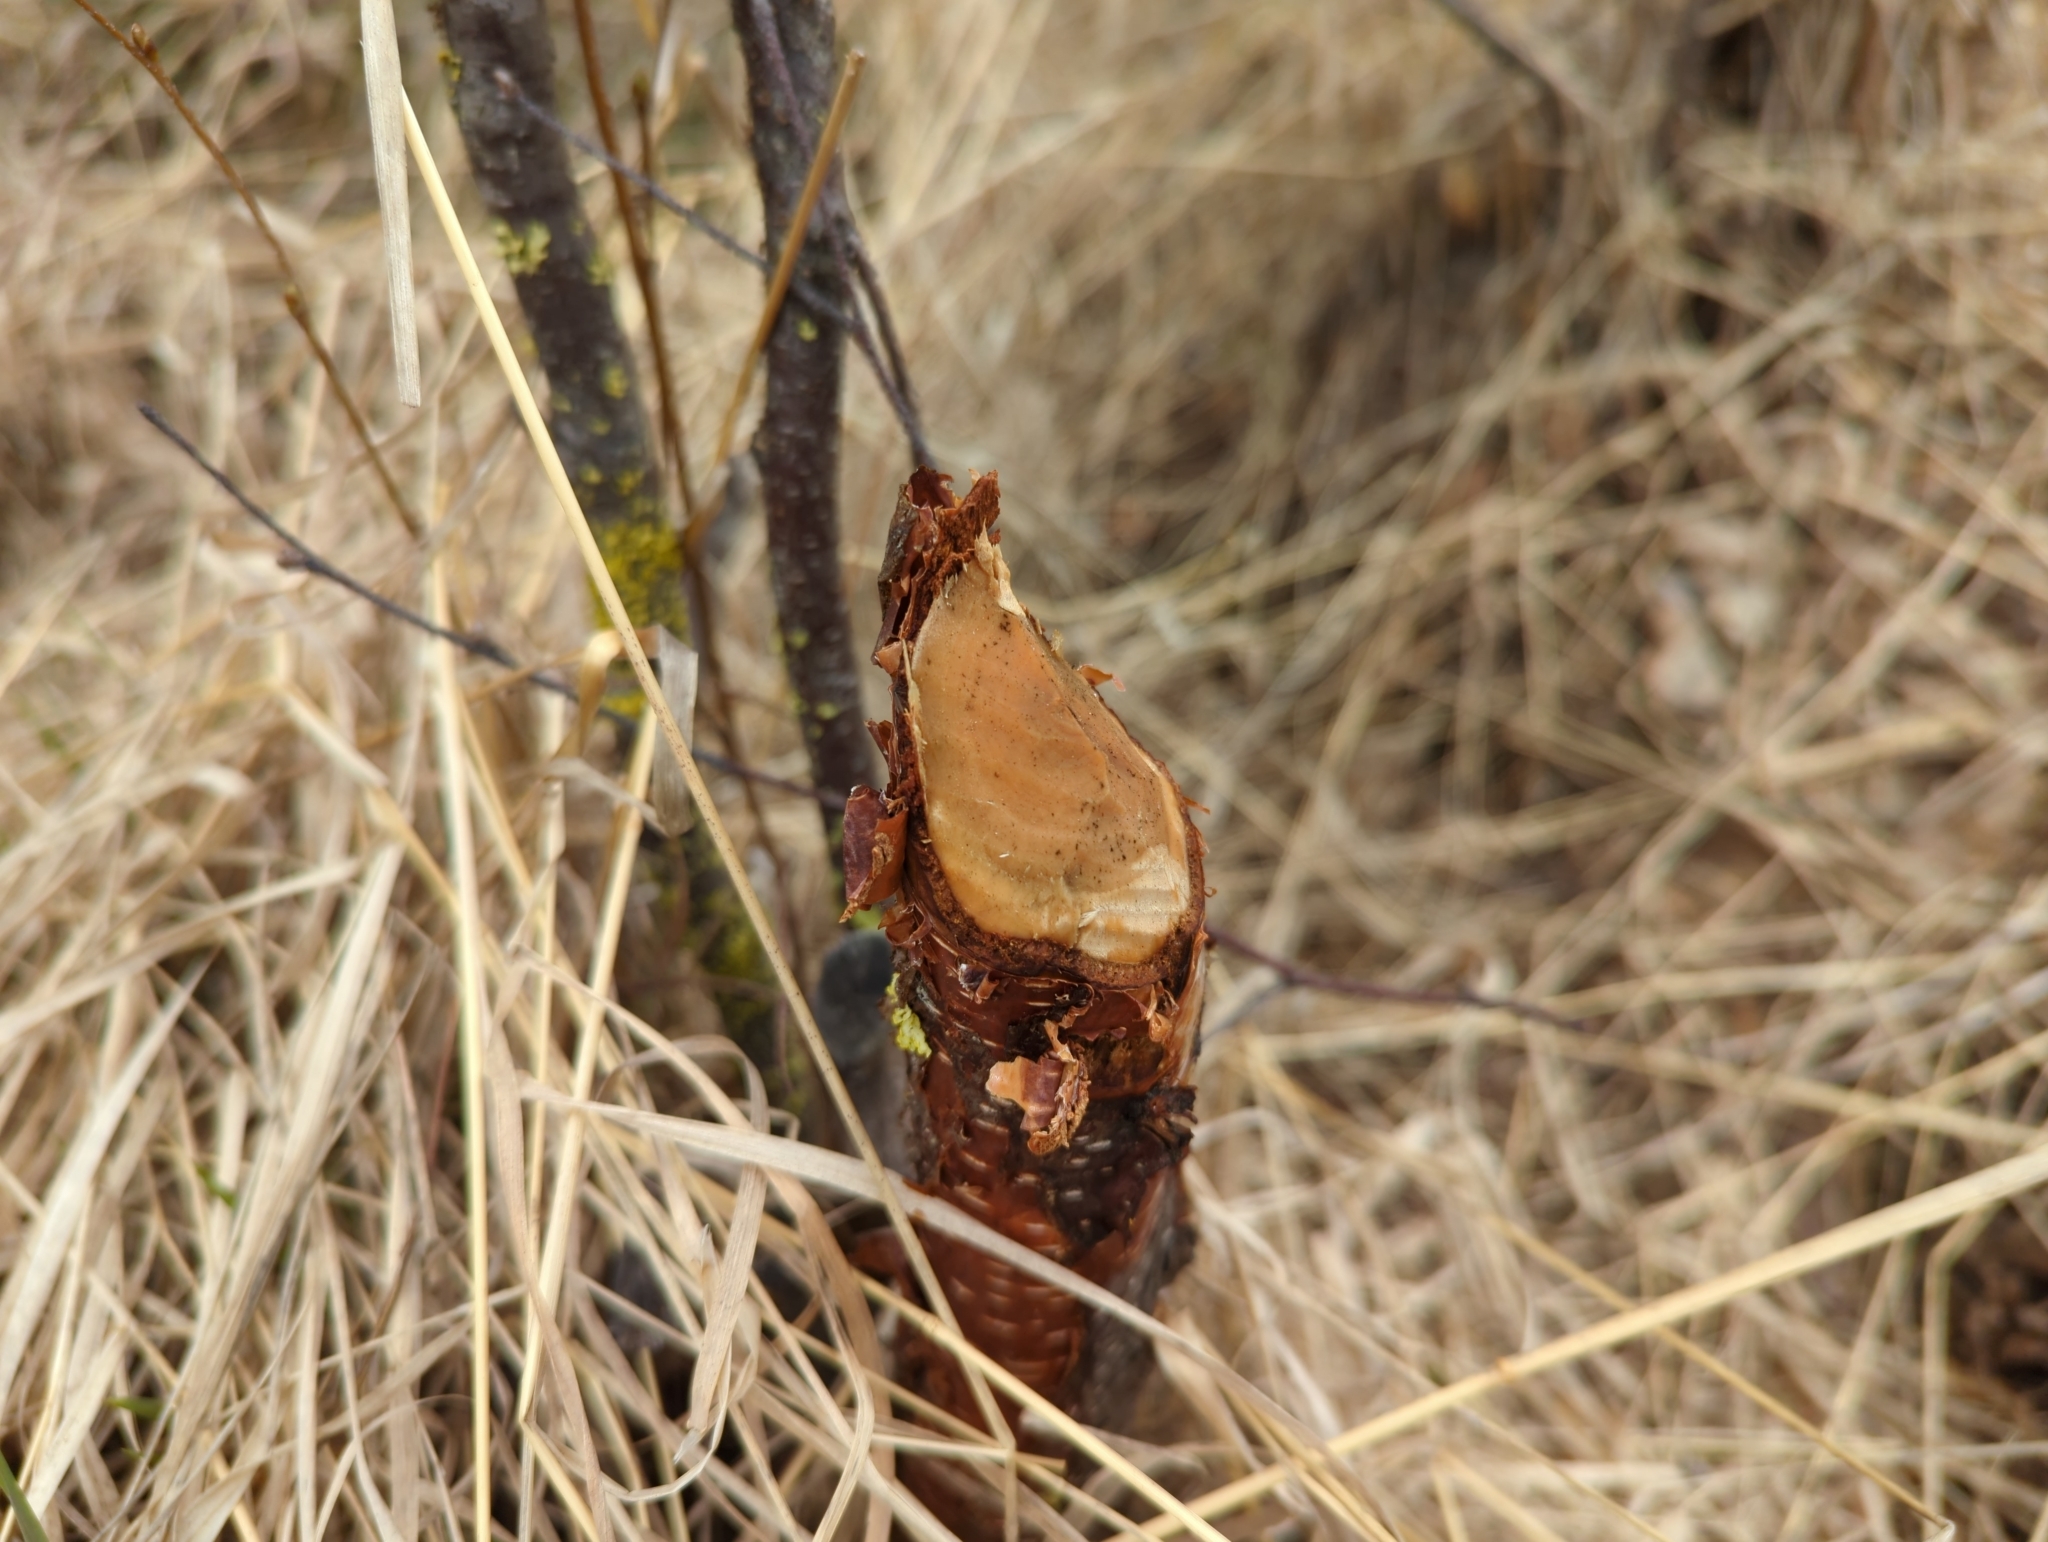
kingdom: Animalia
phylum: Chordata
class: Mammalia
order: Rodentia
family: Castoridae
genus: Castor
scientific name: Castor canadensis
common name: American beaver
